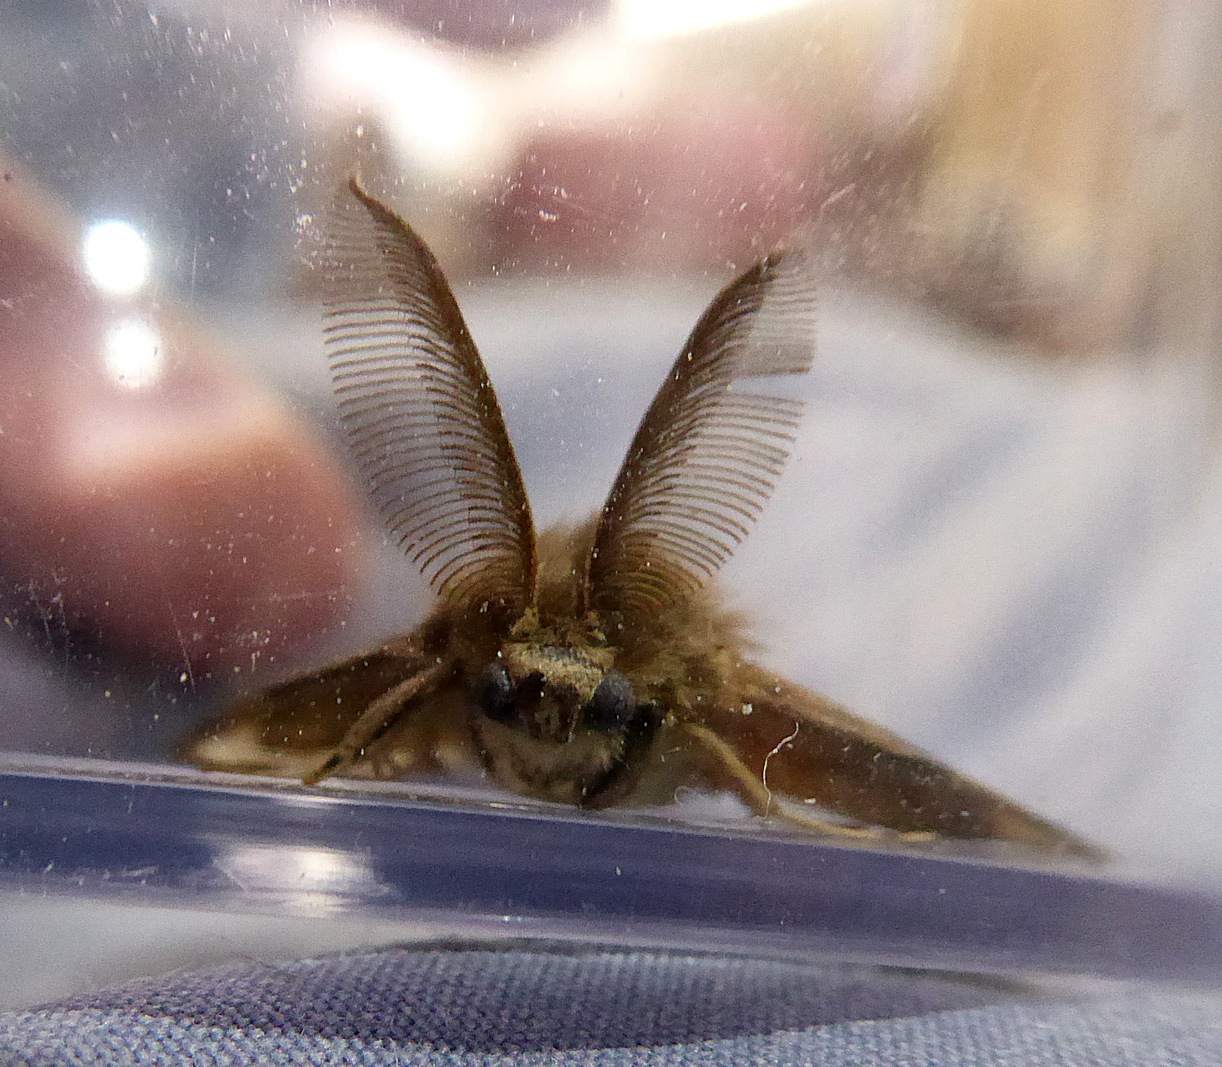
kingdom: Animalia
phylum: Arthropoda
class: Insecta
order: Lepidoptera
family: Erebidae
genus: Lymantria
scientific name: Lymantria dispar
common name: Gypsy moth
